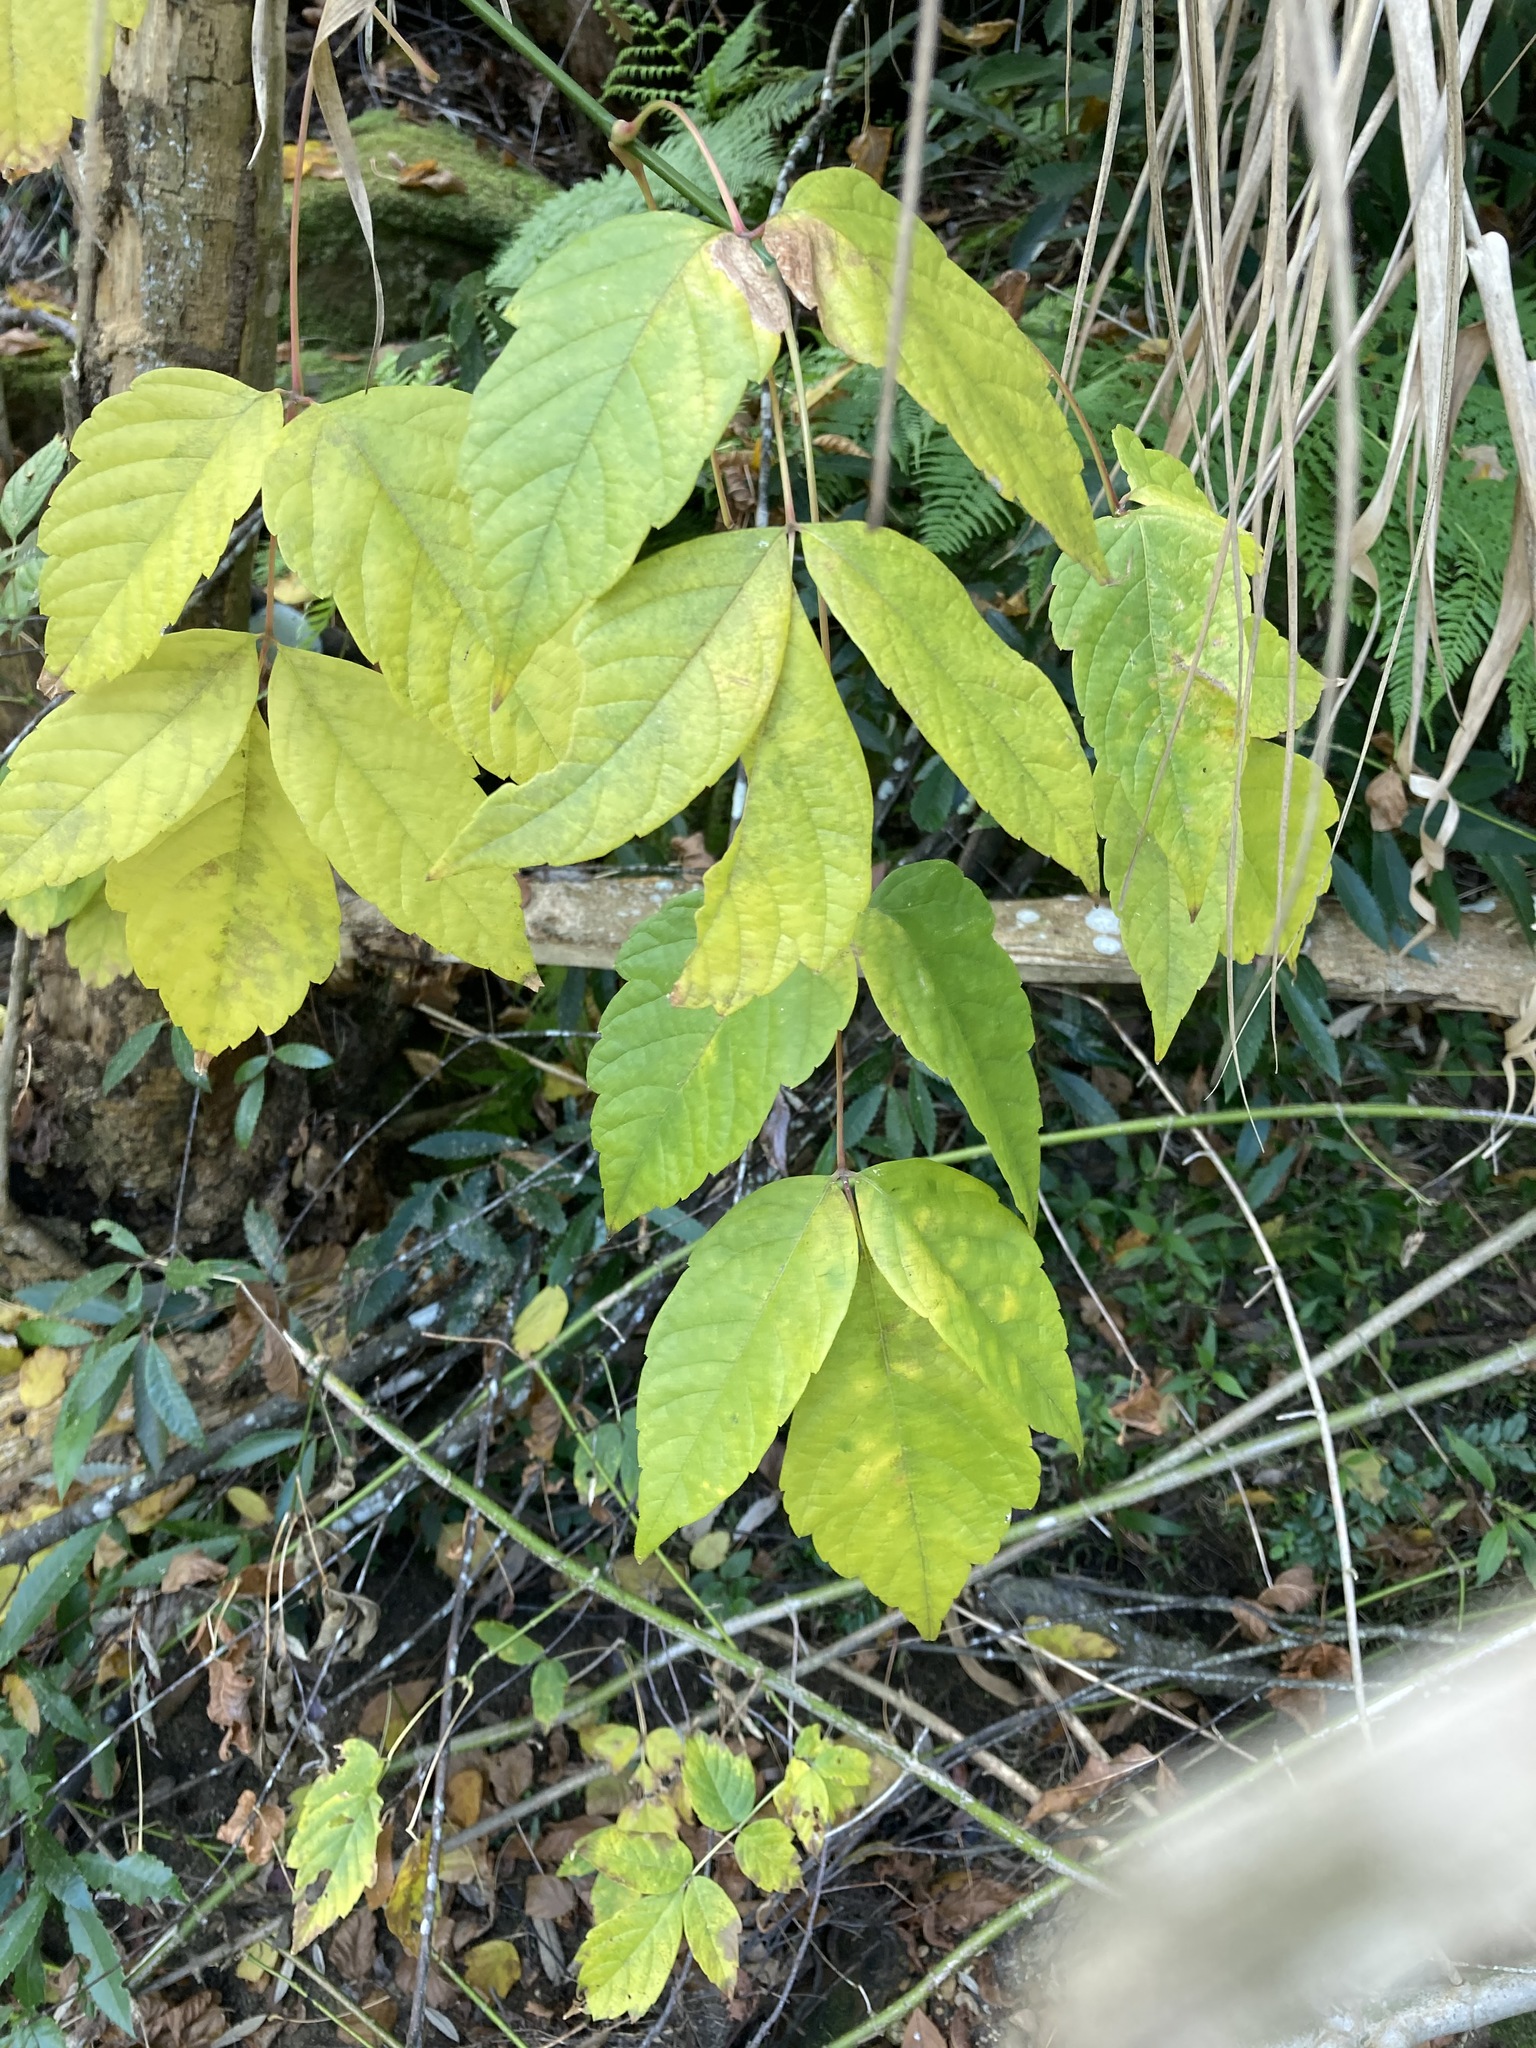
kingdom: Plantae
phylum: Tracheophyta
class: Magnoliopsida
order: Sapindales
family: Sapindaceae
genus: Acer
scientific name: Acer negundo
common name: Ashleaf maple
